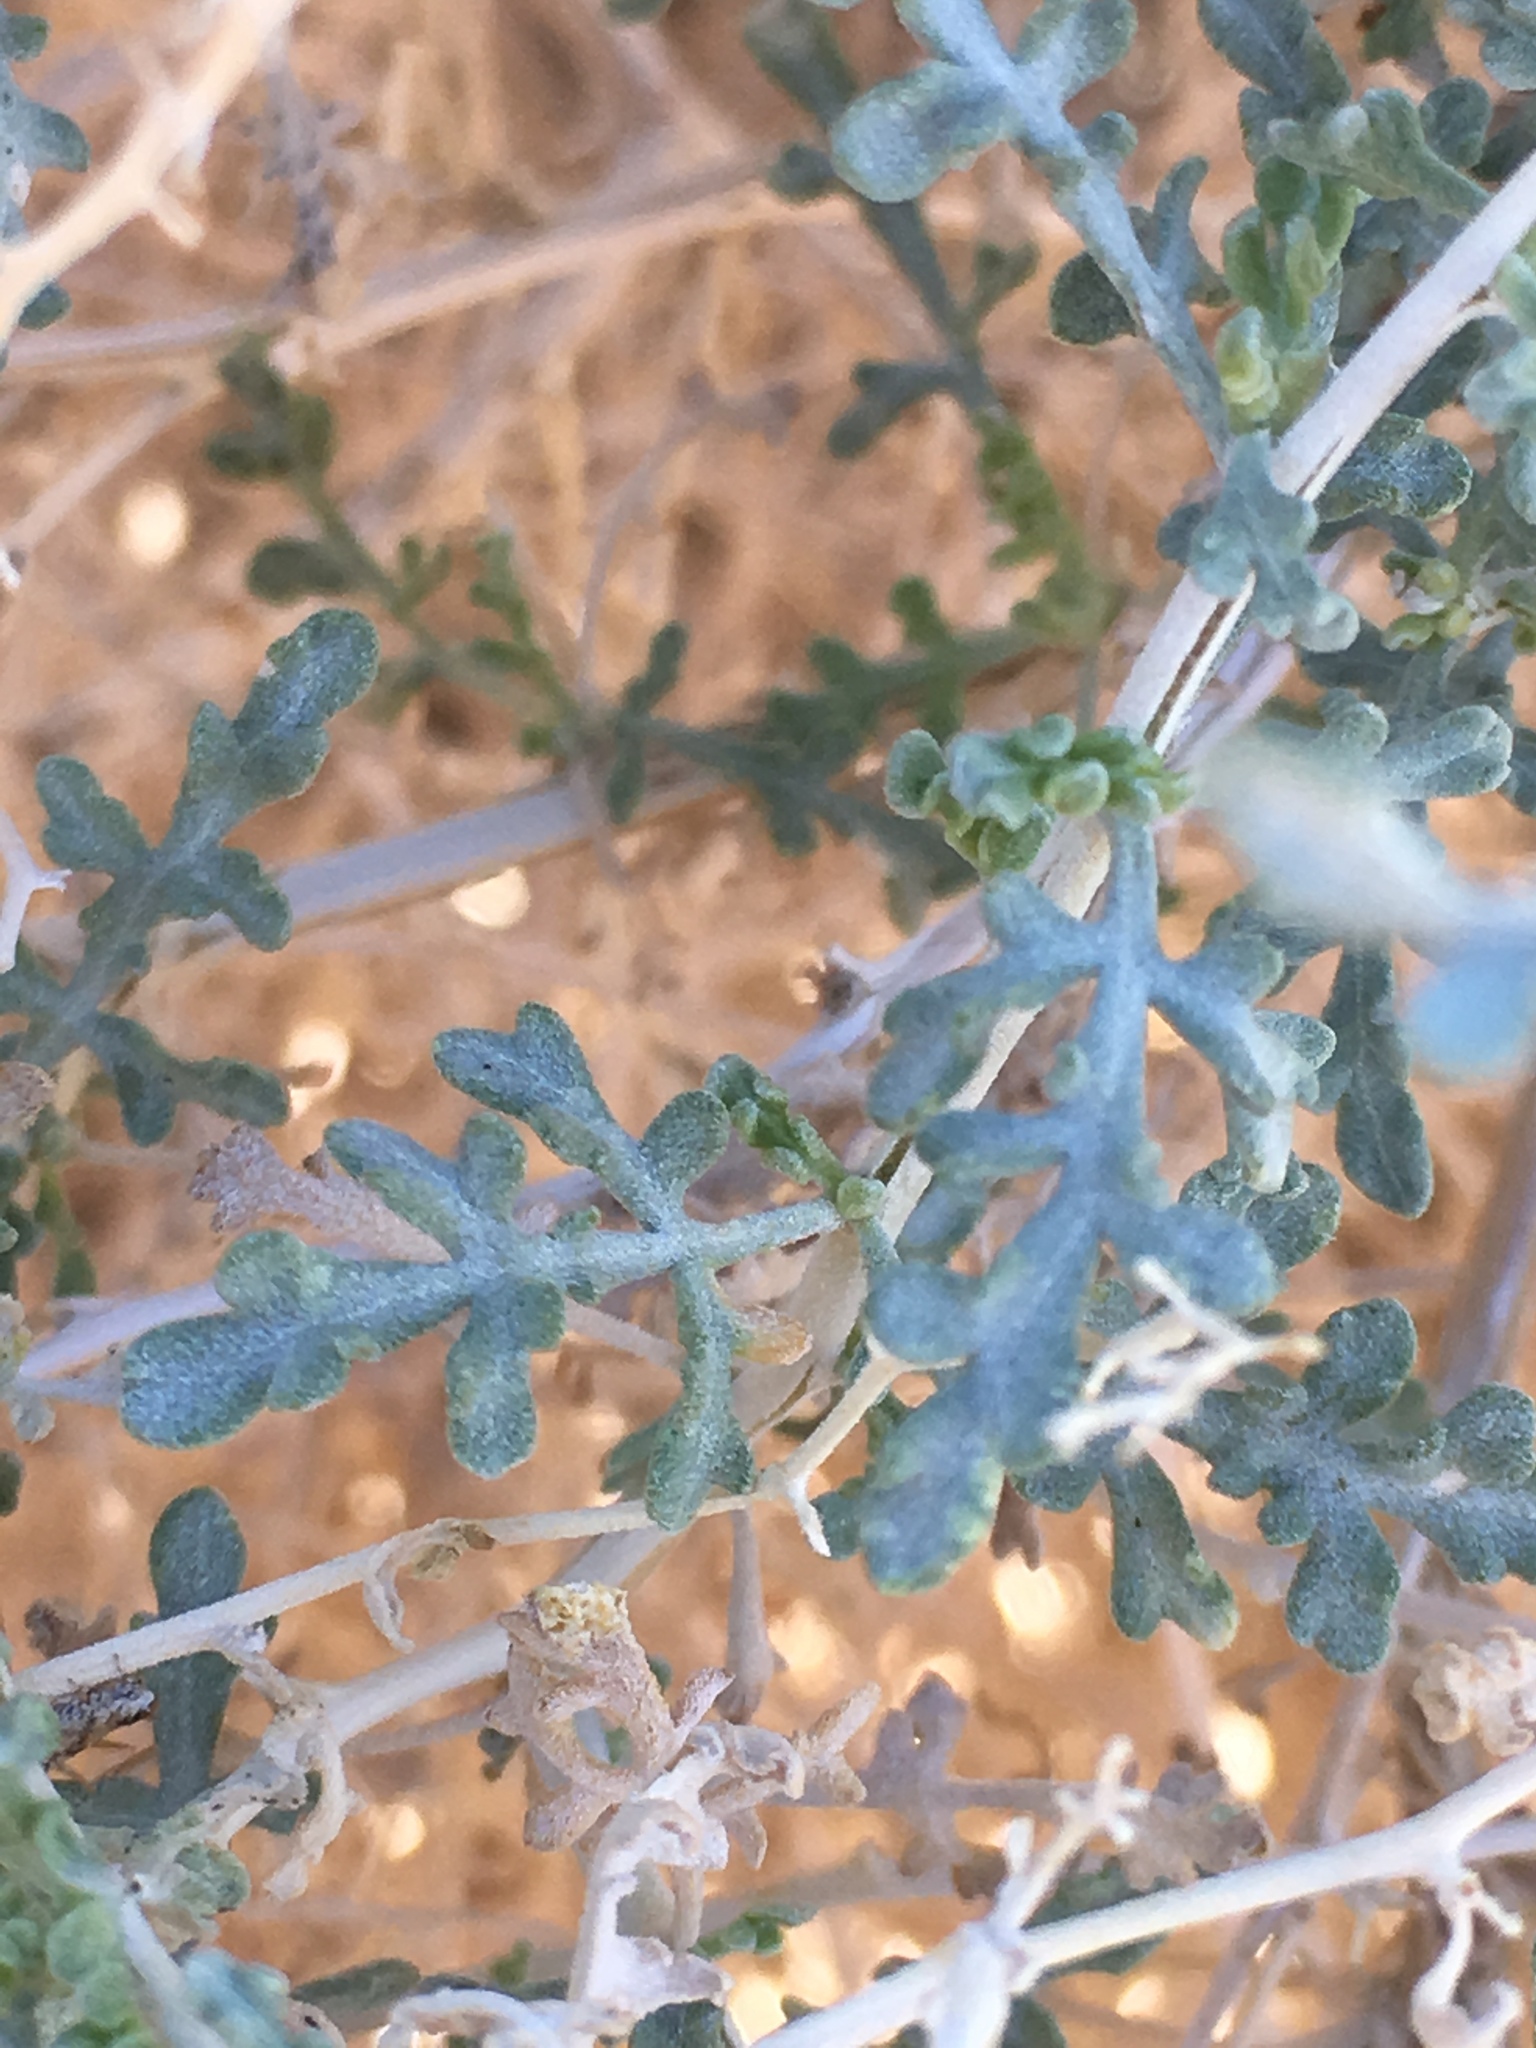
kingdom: Plantae
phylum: Tracheophyta
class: Magnoliopsida
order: Asterales
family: Asteraceae
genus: Ambrosia
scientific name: Ambrosia dumosa
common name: Bur-sage
